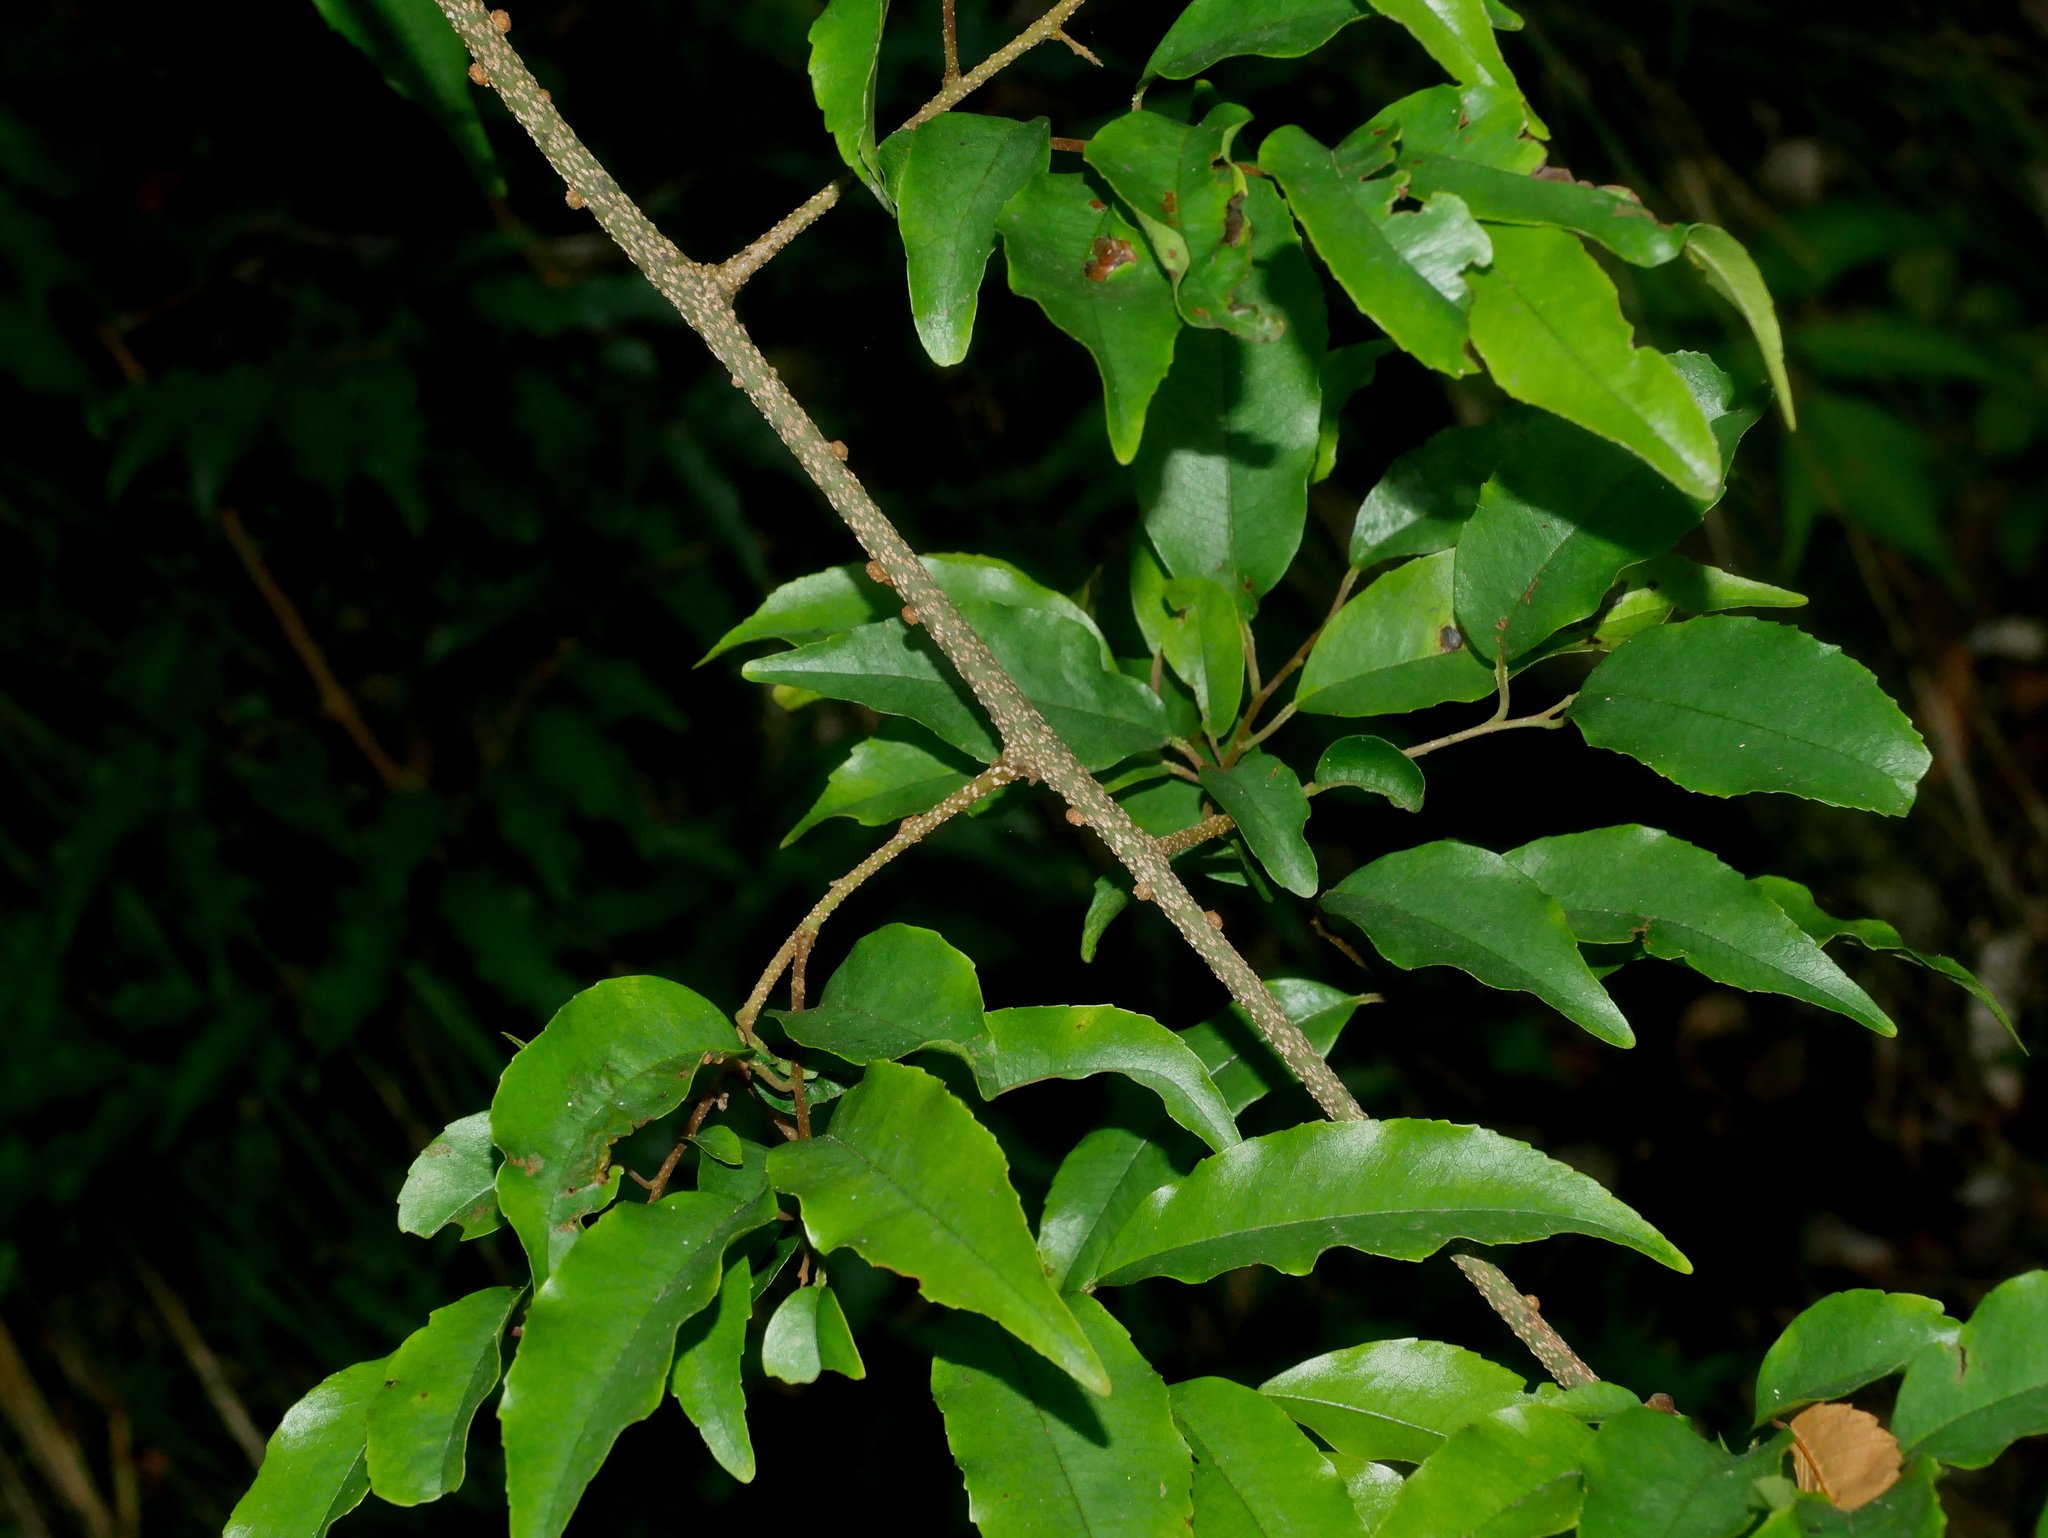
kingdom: Plantae
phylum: Tracheophyta
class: Magnoliopsida
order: Ericales
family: Primulaceae
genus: Embelia
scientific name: Embelia vestita
